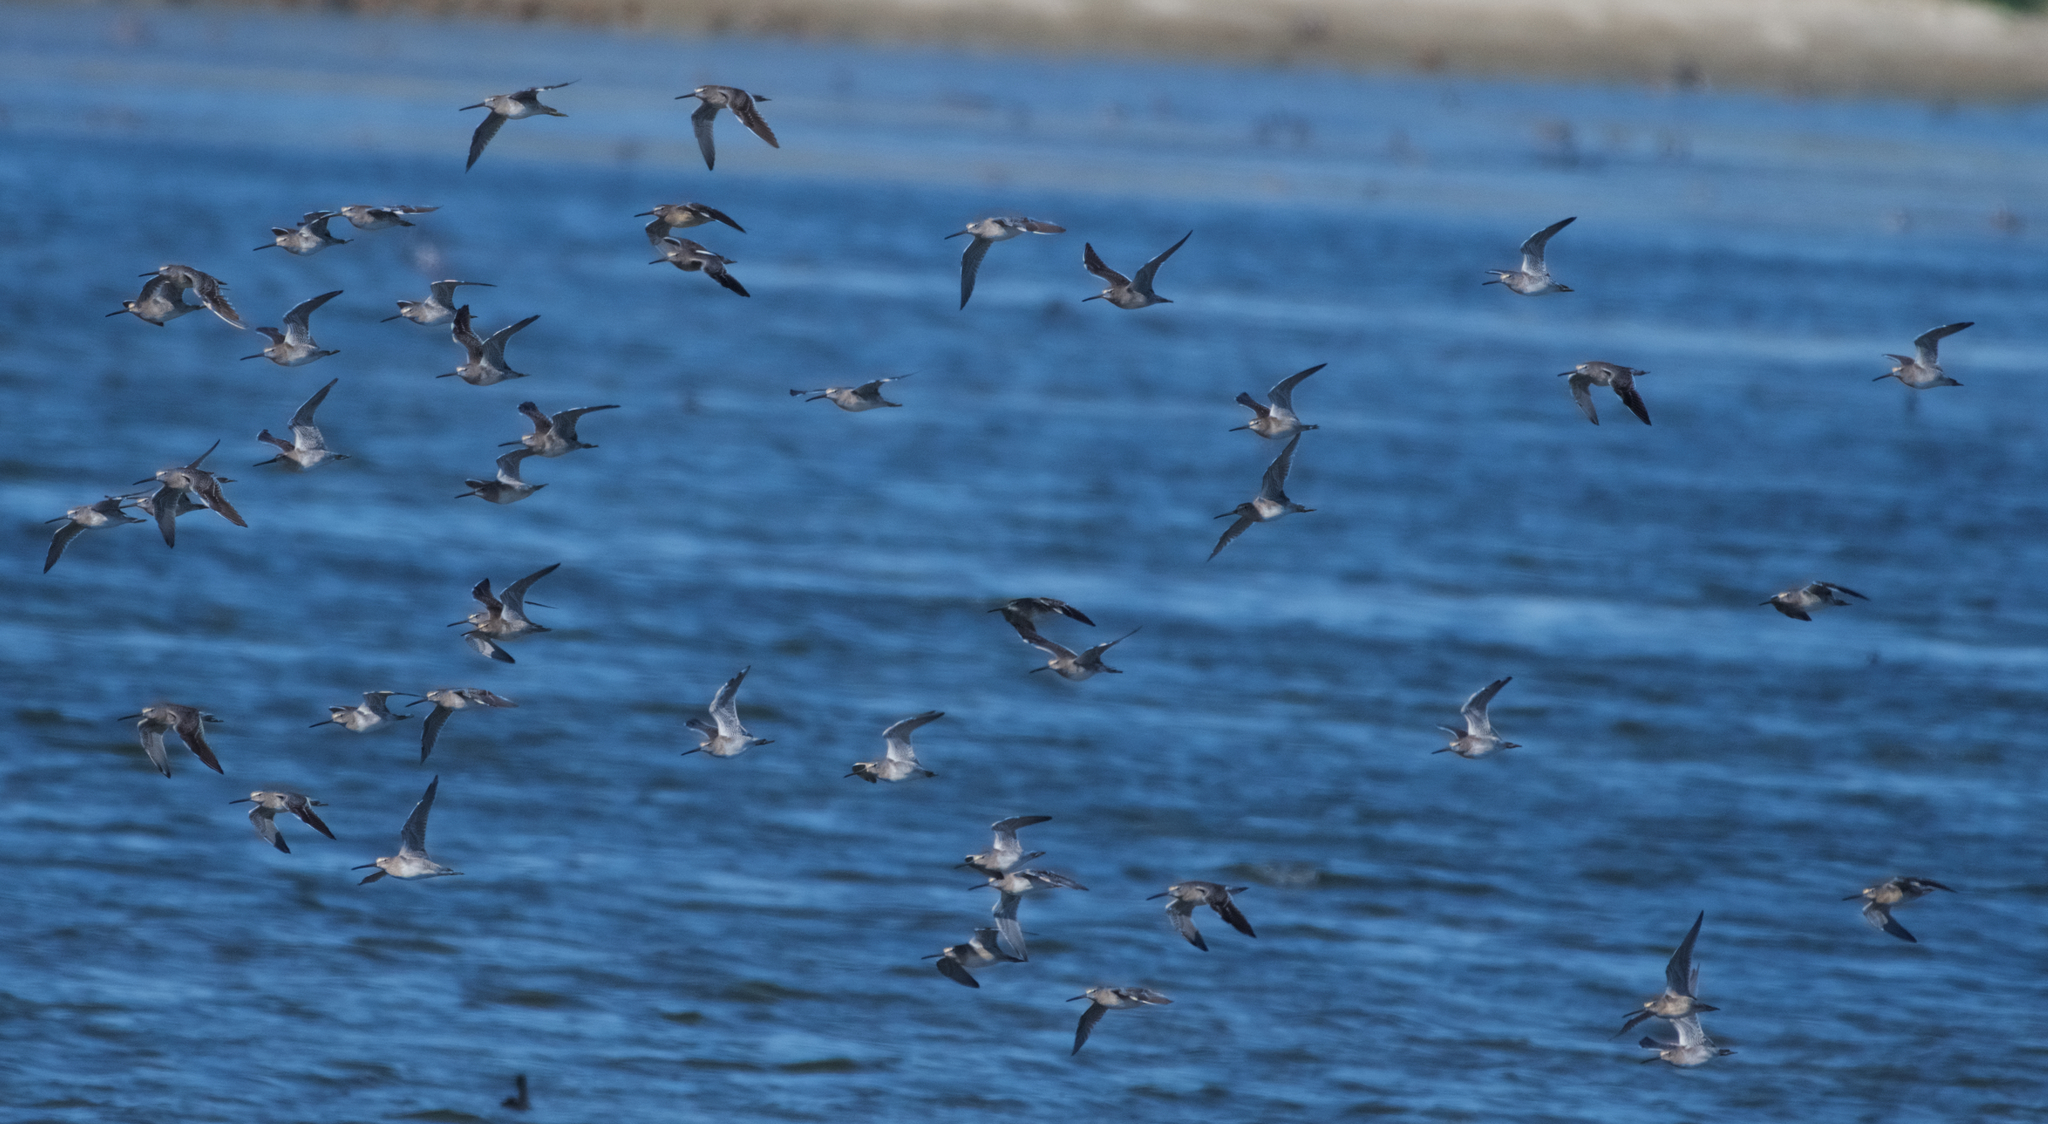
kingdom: Animalia
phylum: Chordata
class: Aves
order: Charadriiformes
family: Scolopacidae
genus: Limnodromus
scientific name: Limnodromus scolopaceus
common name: Long-billed dowitcher
